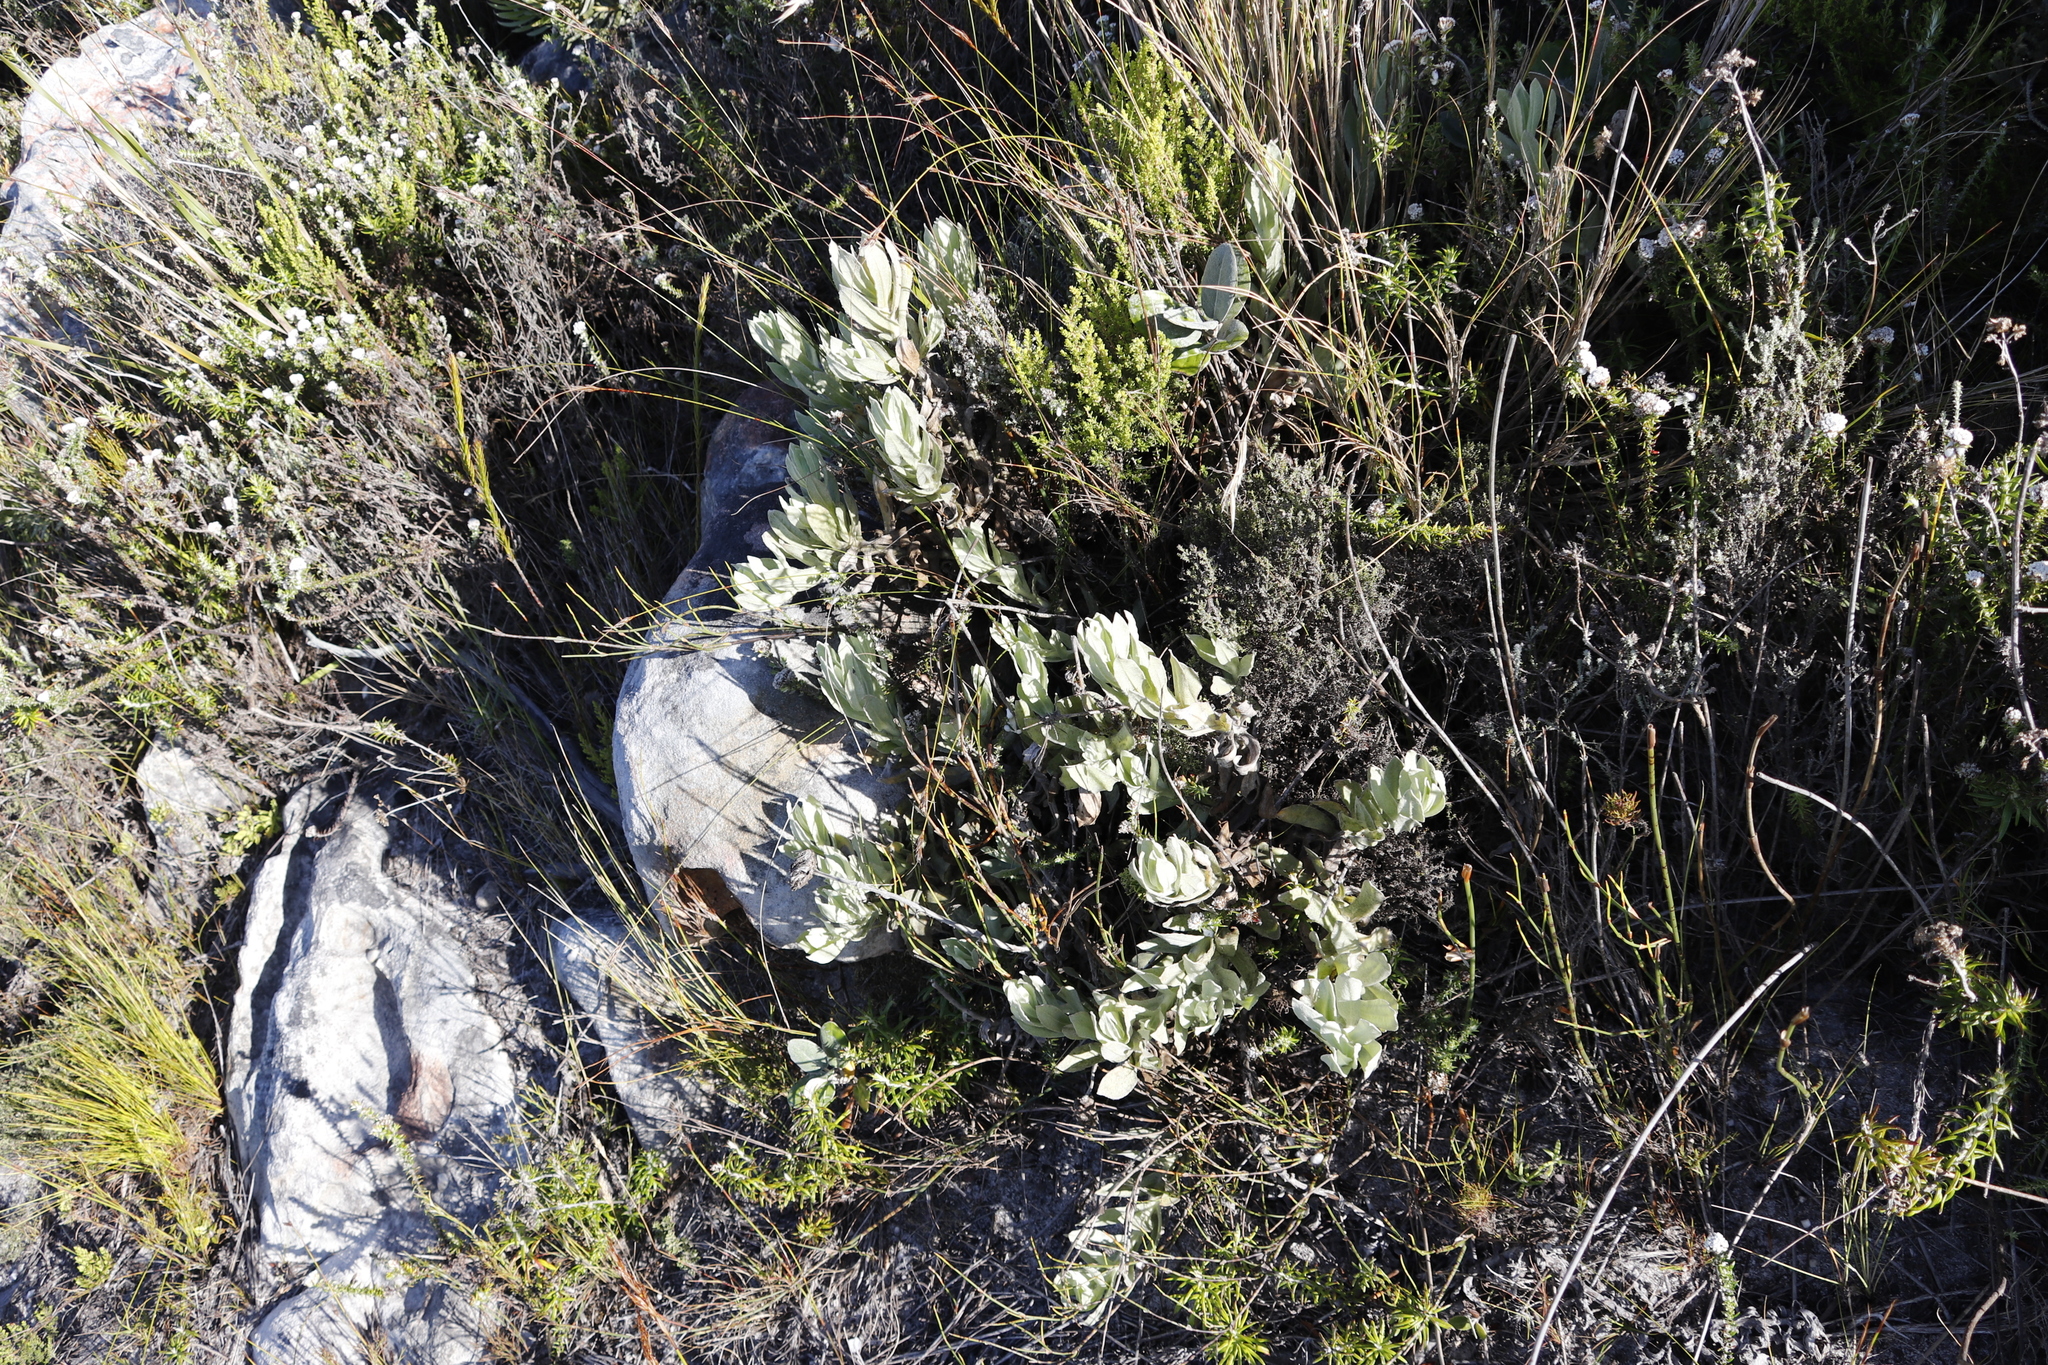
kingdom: Plantae
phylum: Tracheophyta
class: Magnoliopsida
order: Asterales
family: Asteraceae
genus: Syncarpha
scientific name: Syncarpha speciosissima
